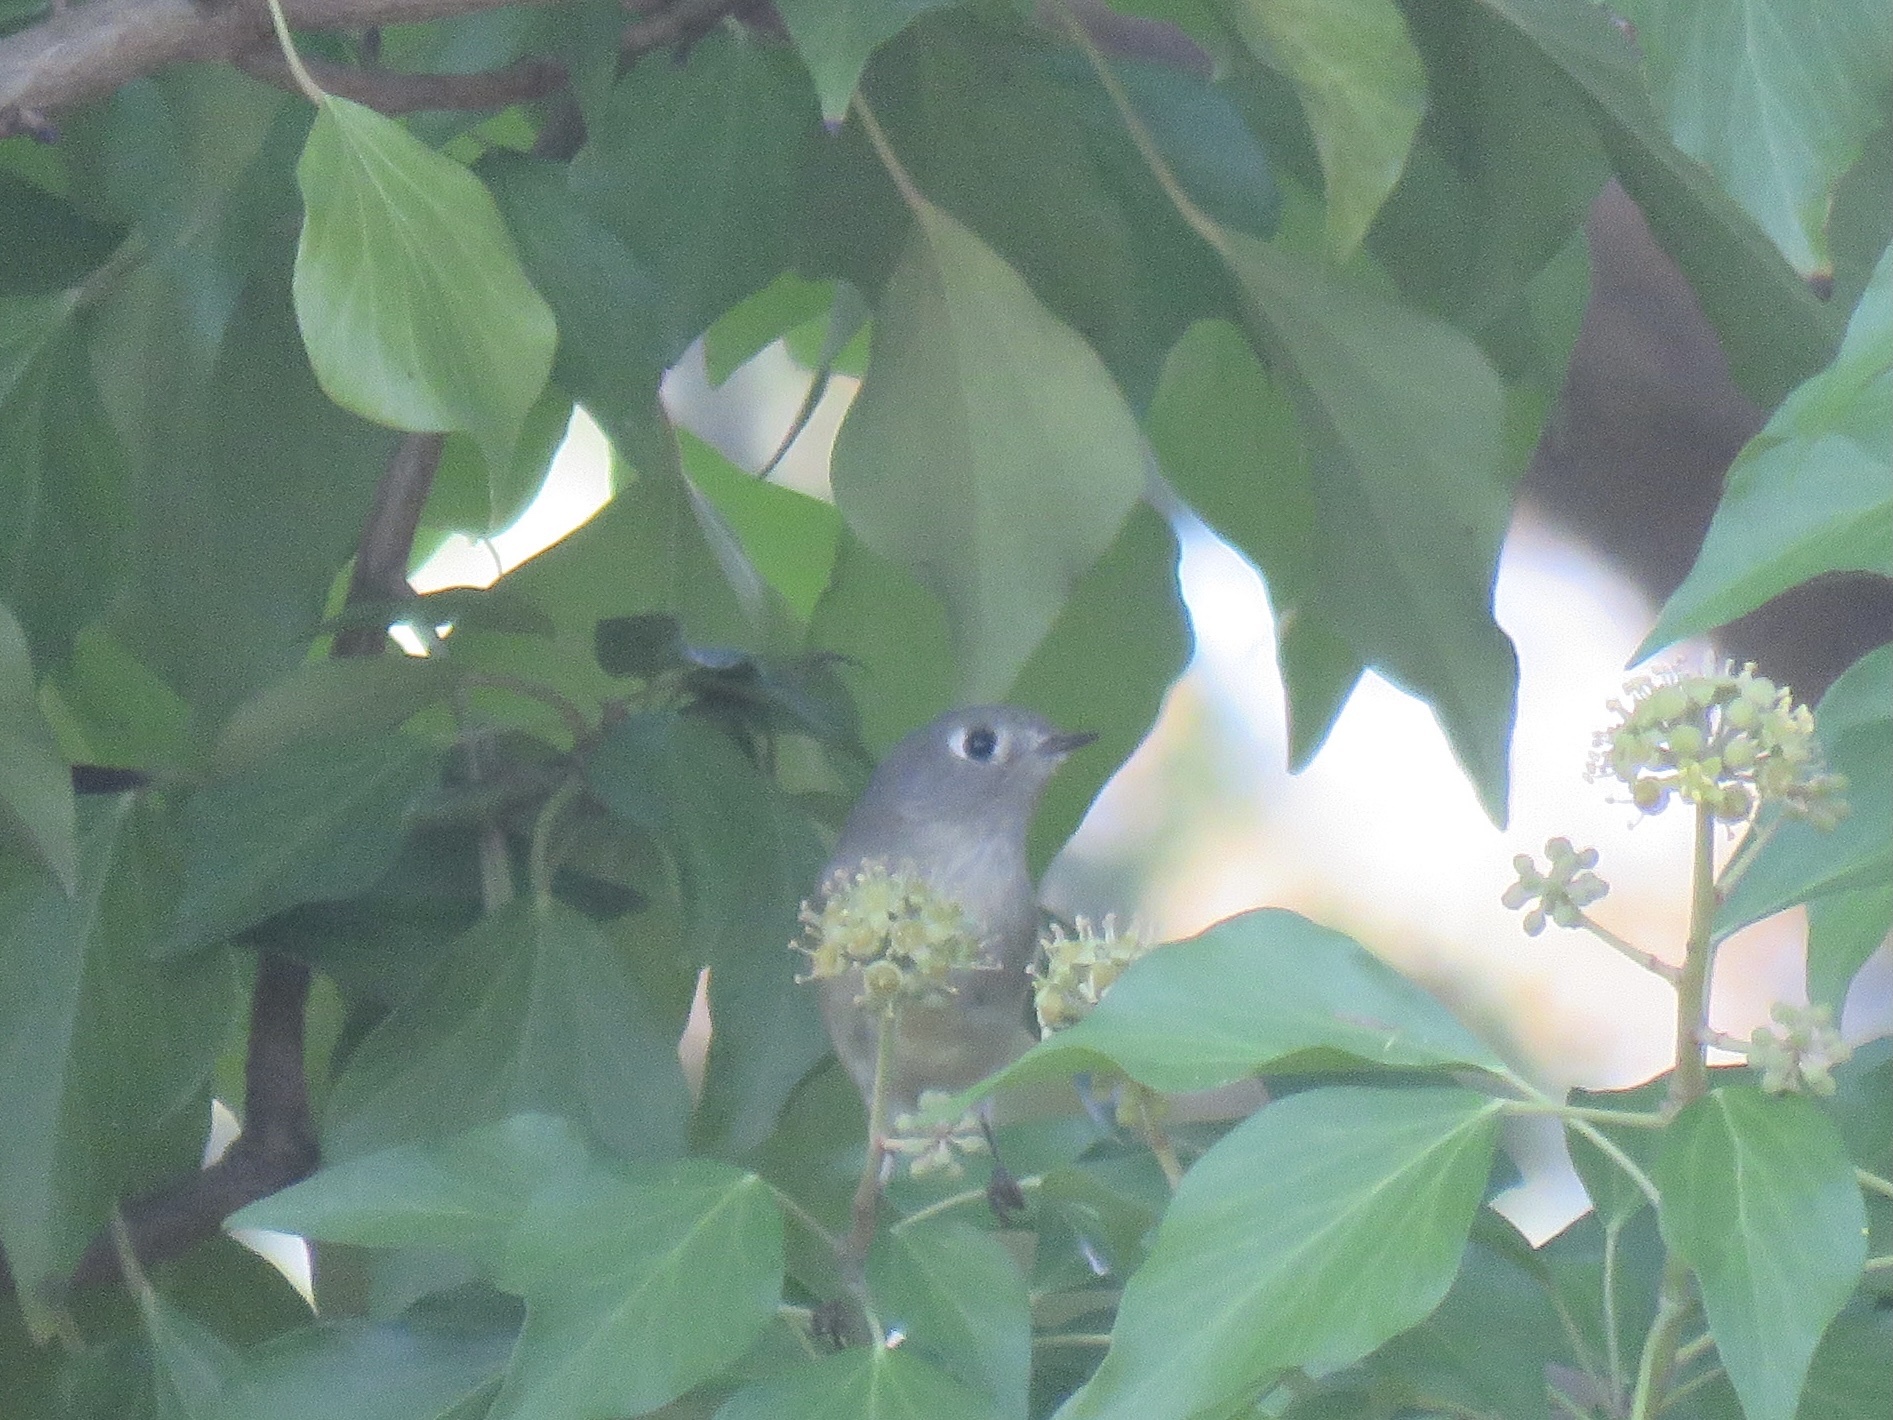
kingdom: Animalia
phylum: Chordata
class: Aves
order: Passeriformes
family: Regulidae
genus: Regulus
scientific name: Regulus calendula
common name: Ruby-crowned kinglet
